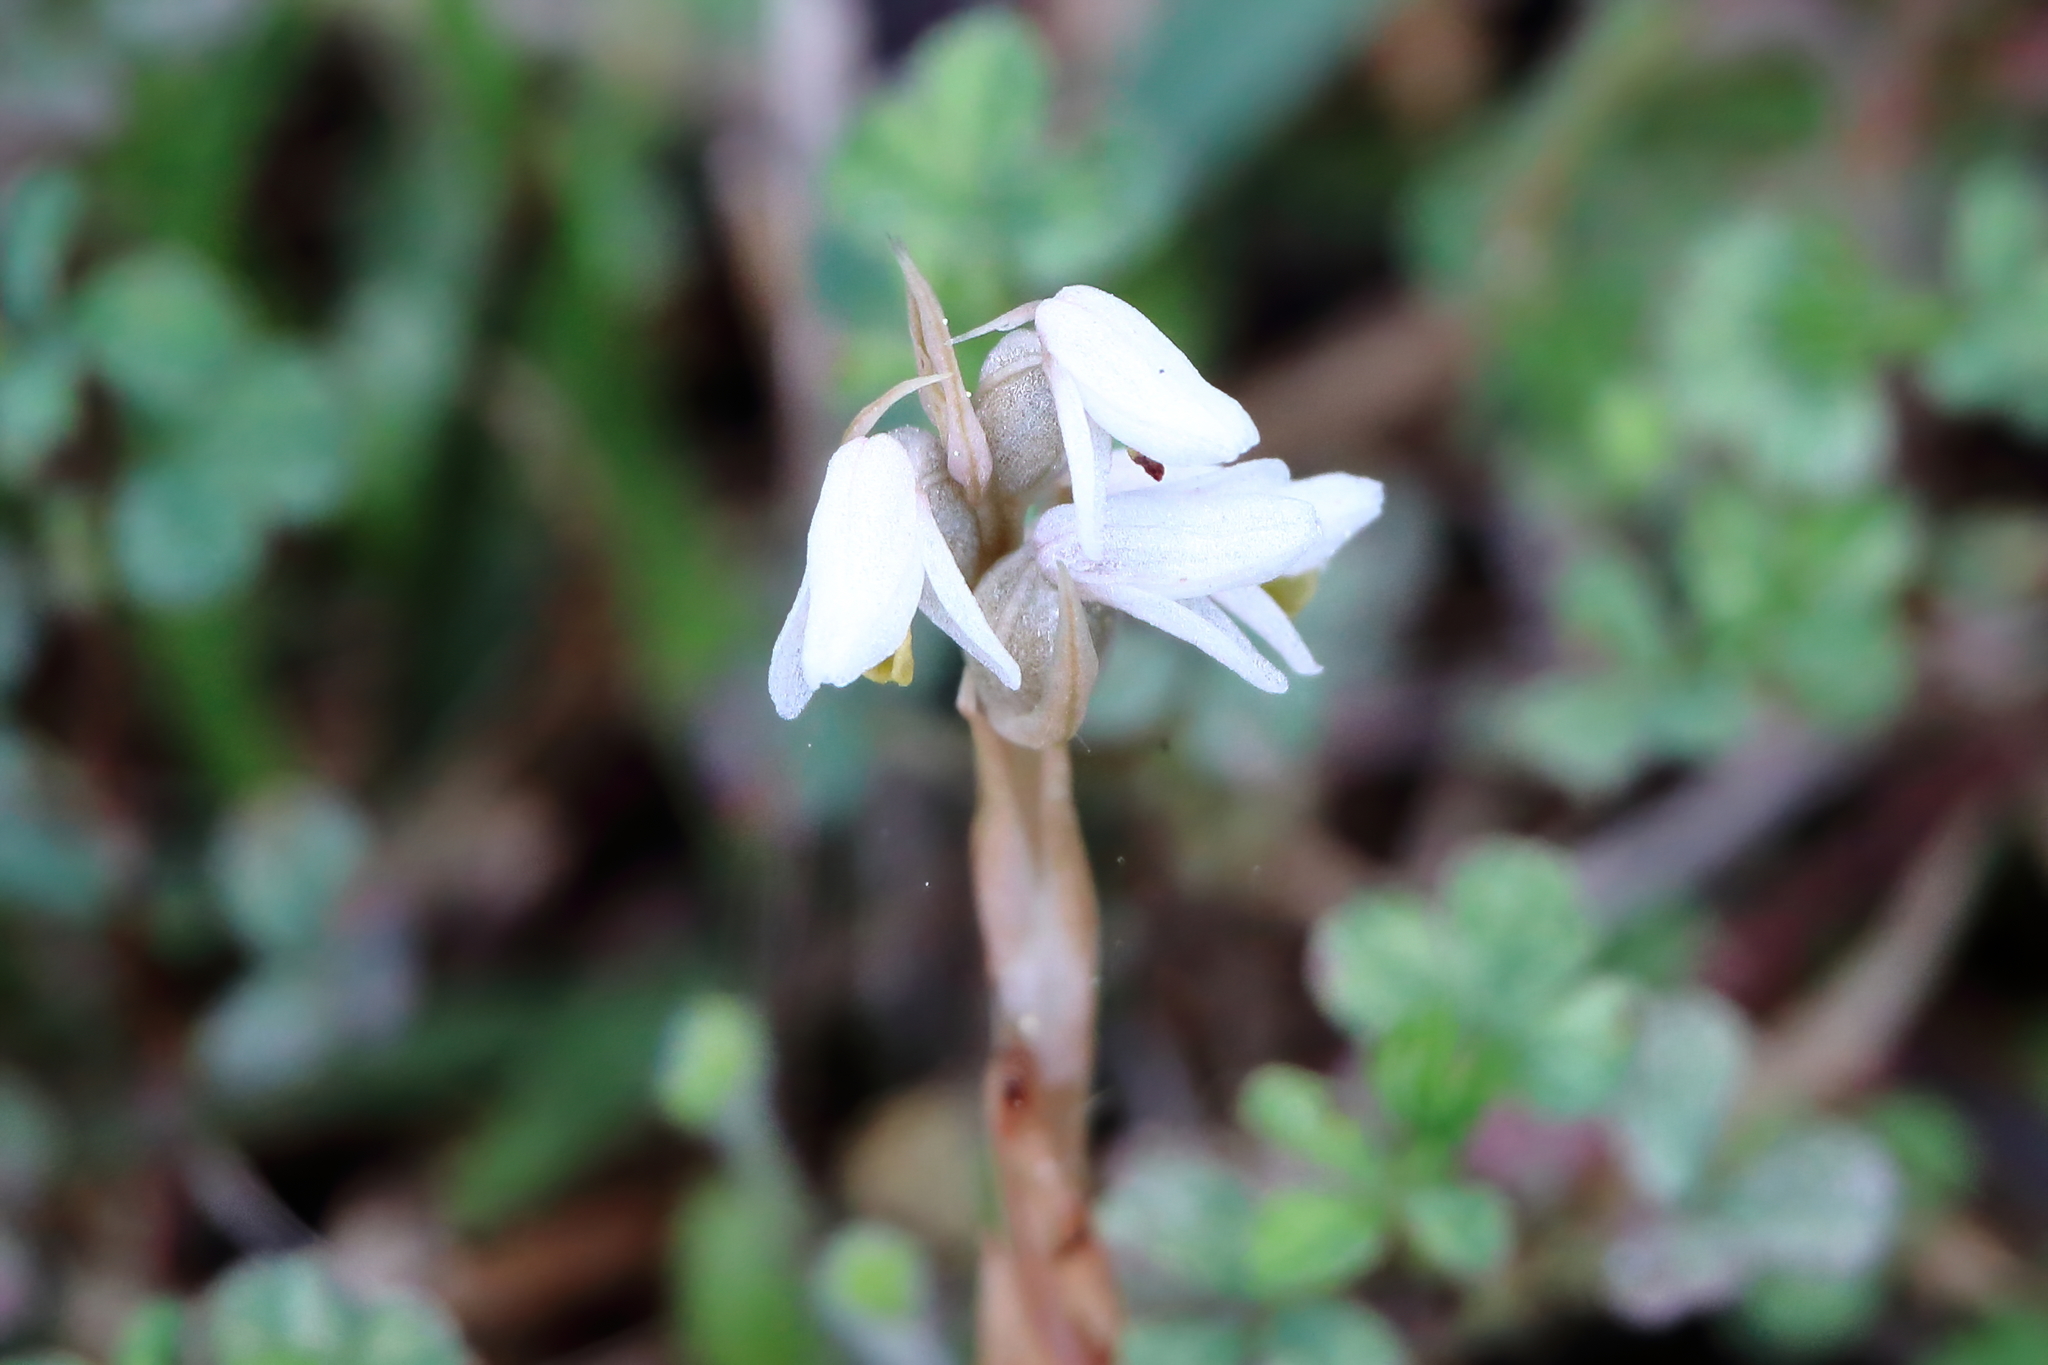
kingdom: Plantae
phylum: Tracheophyta
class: Liliopsida
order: Asparagales
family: Orchidaceae
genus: Zeuxine
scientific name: Zeuxine strateumatica
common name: Soldier's orchid
